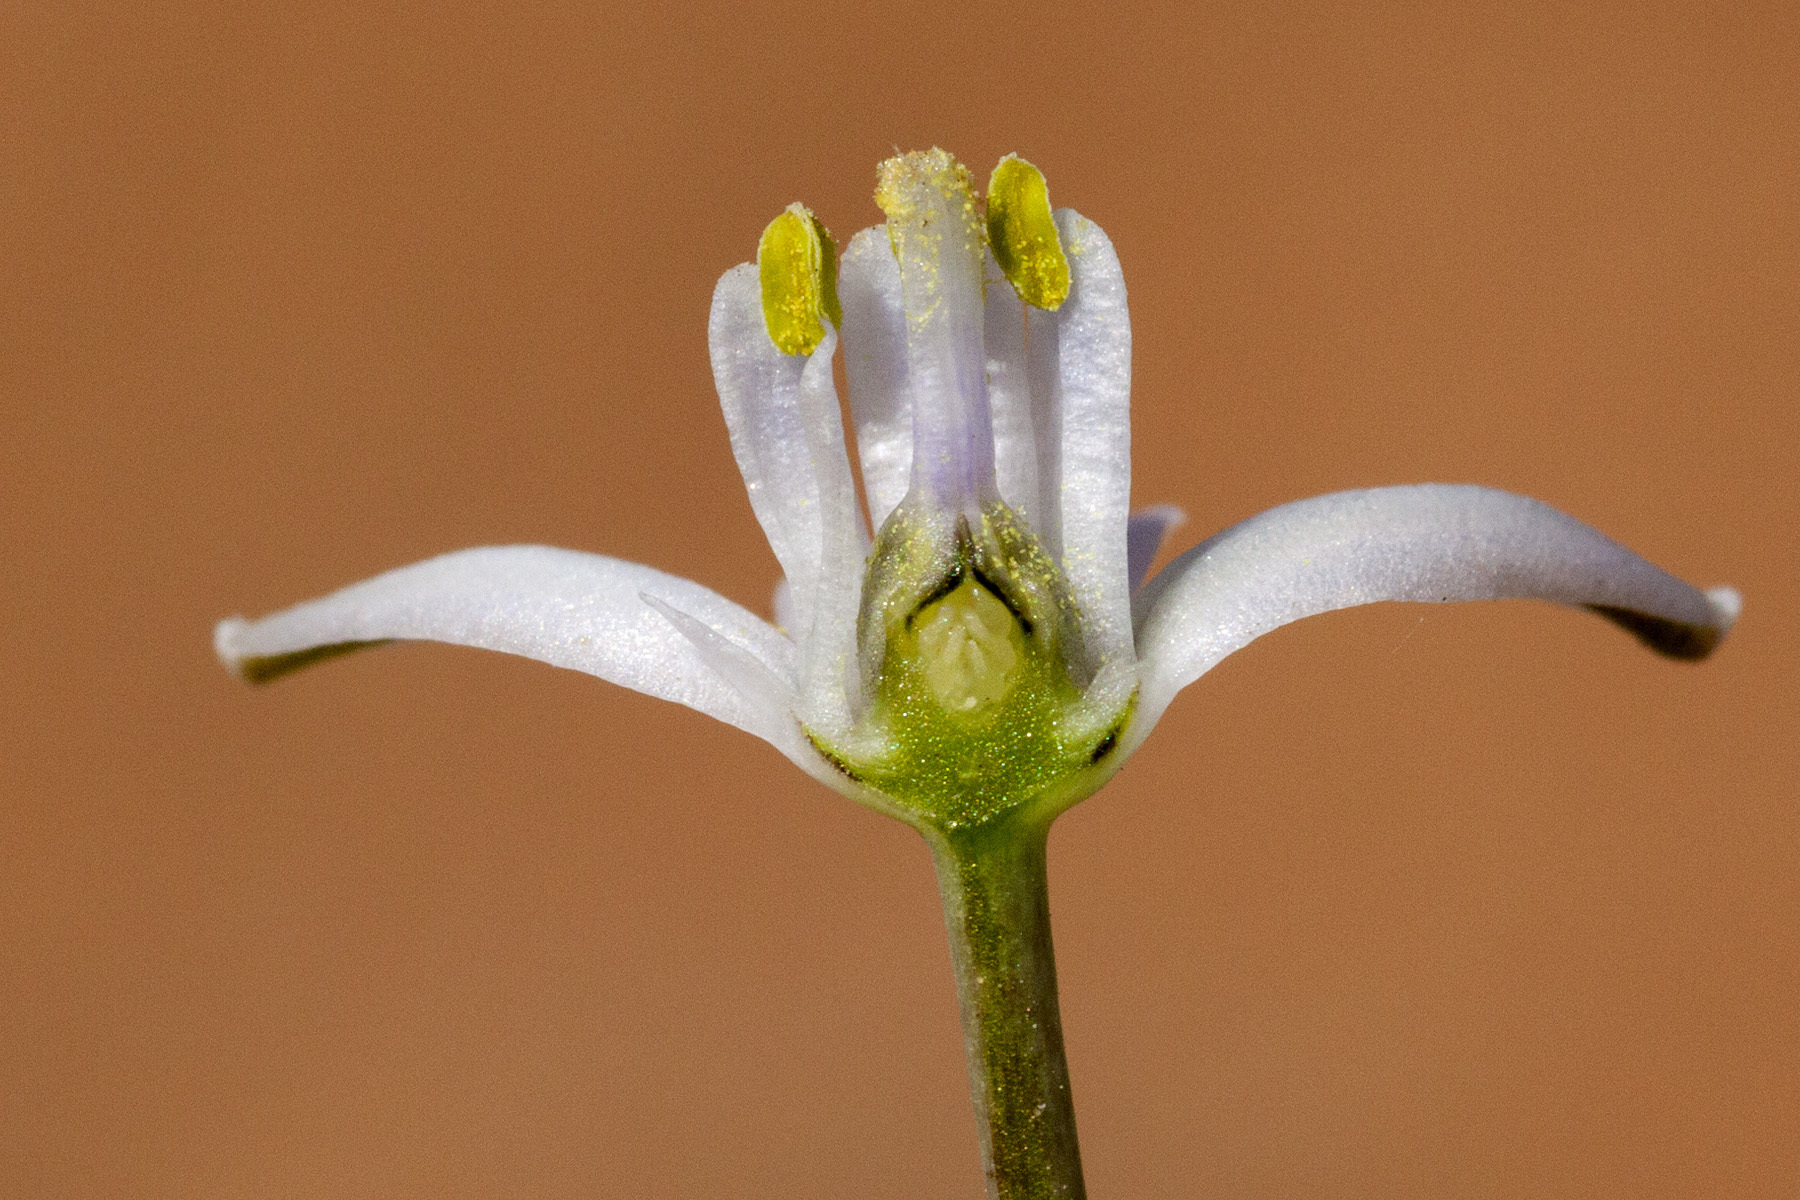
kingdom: Plantae
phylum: Tracheophyta
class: Liliopsida
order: Asparagales
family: Asparagaceae
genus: Muilla
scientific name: Muilla lordsburgana
